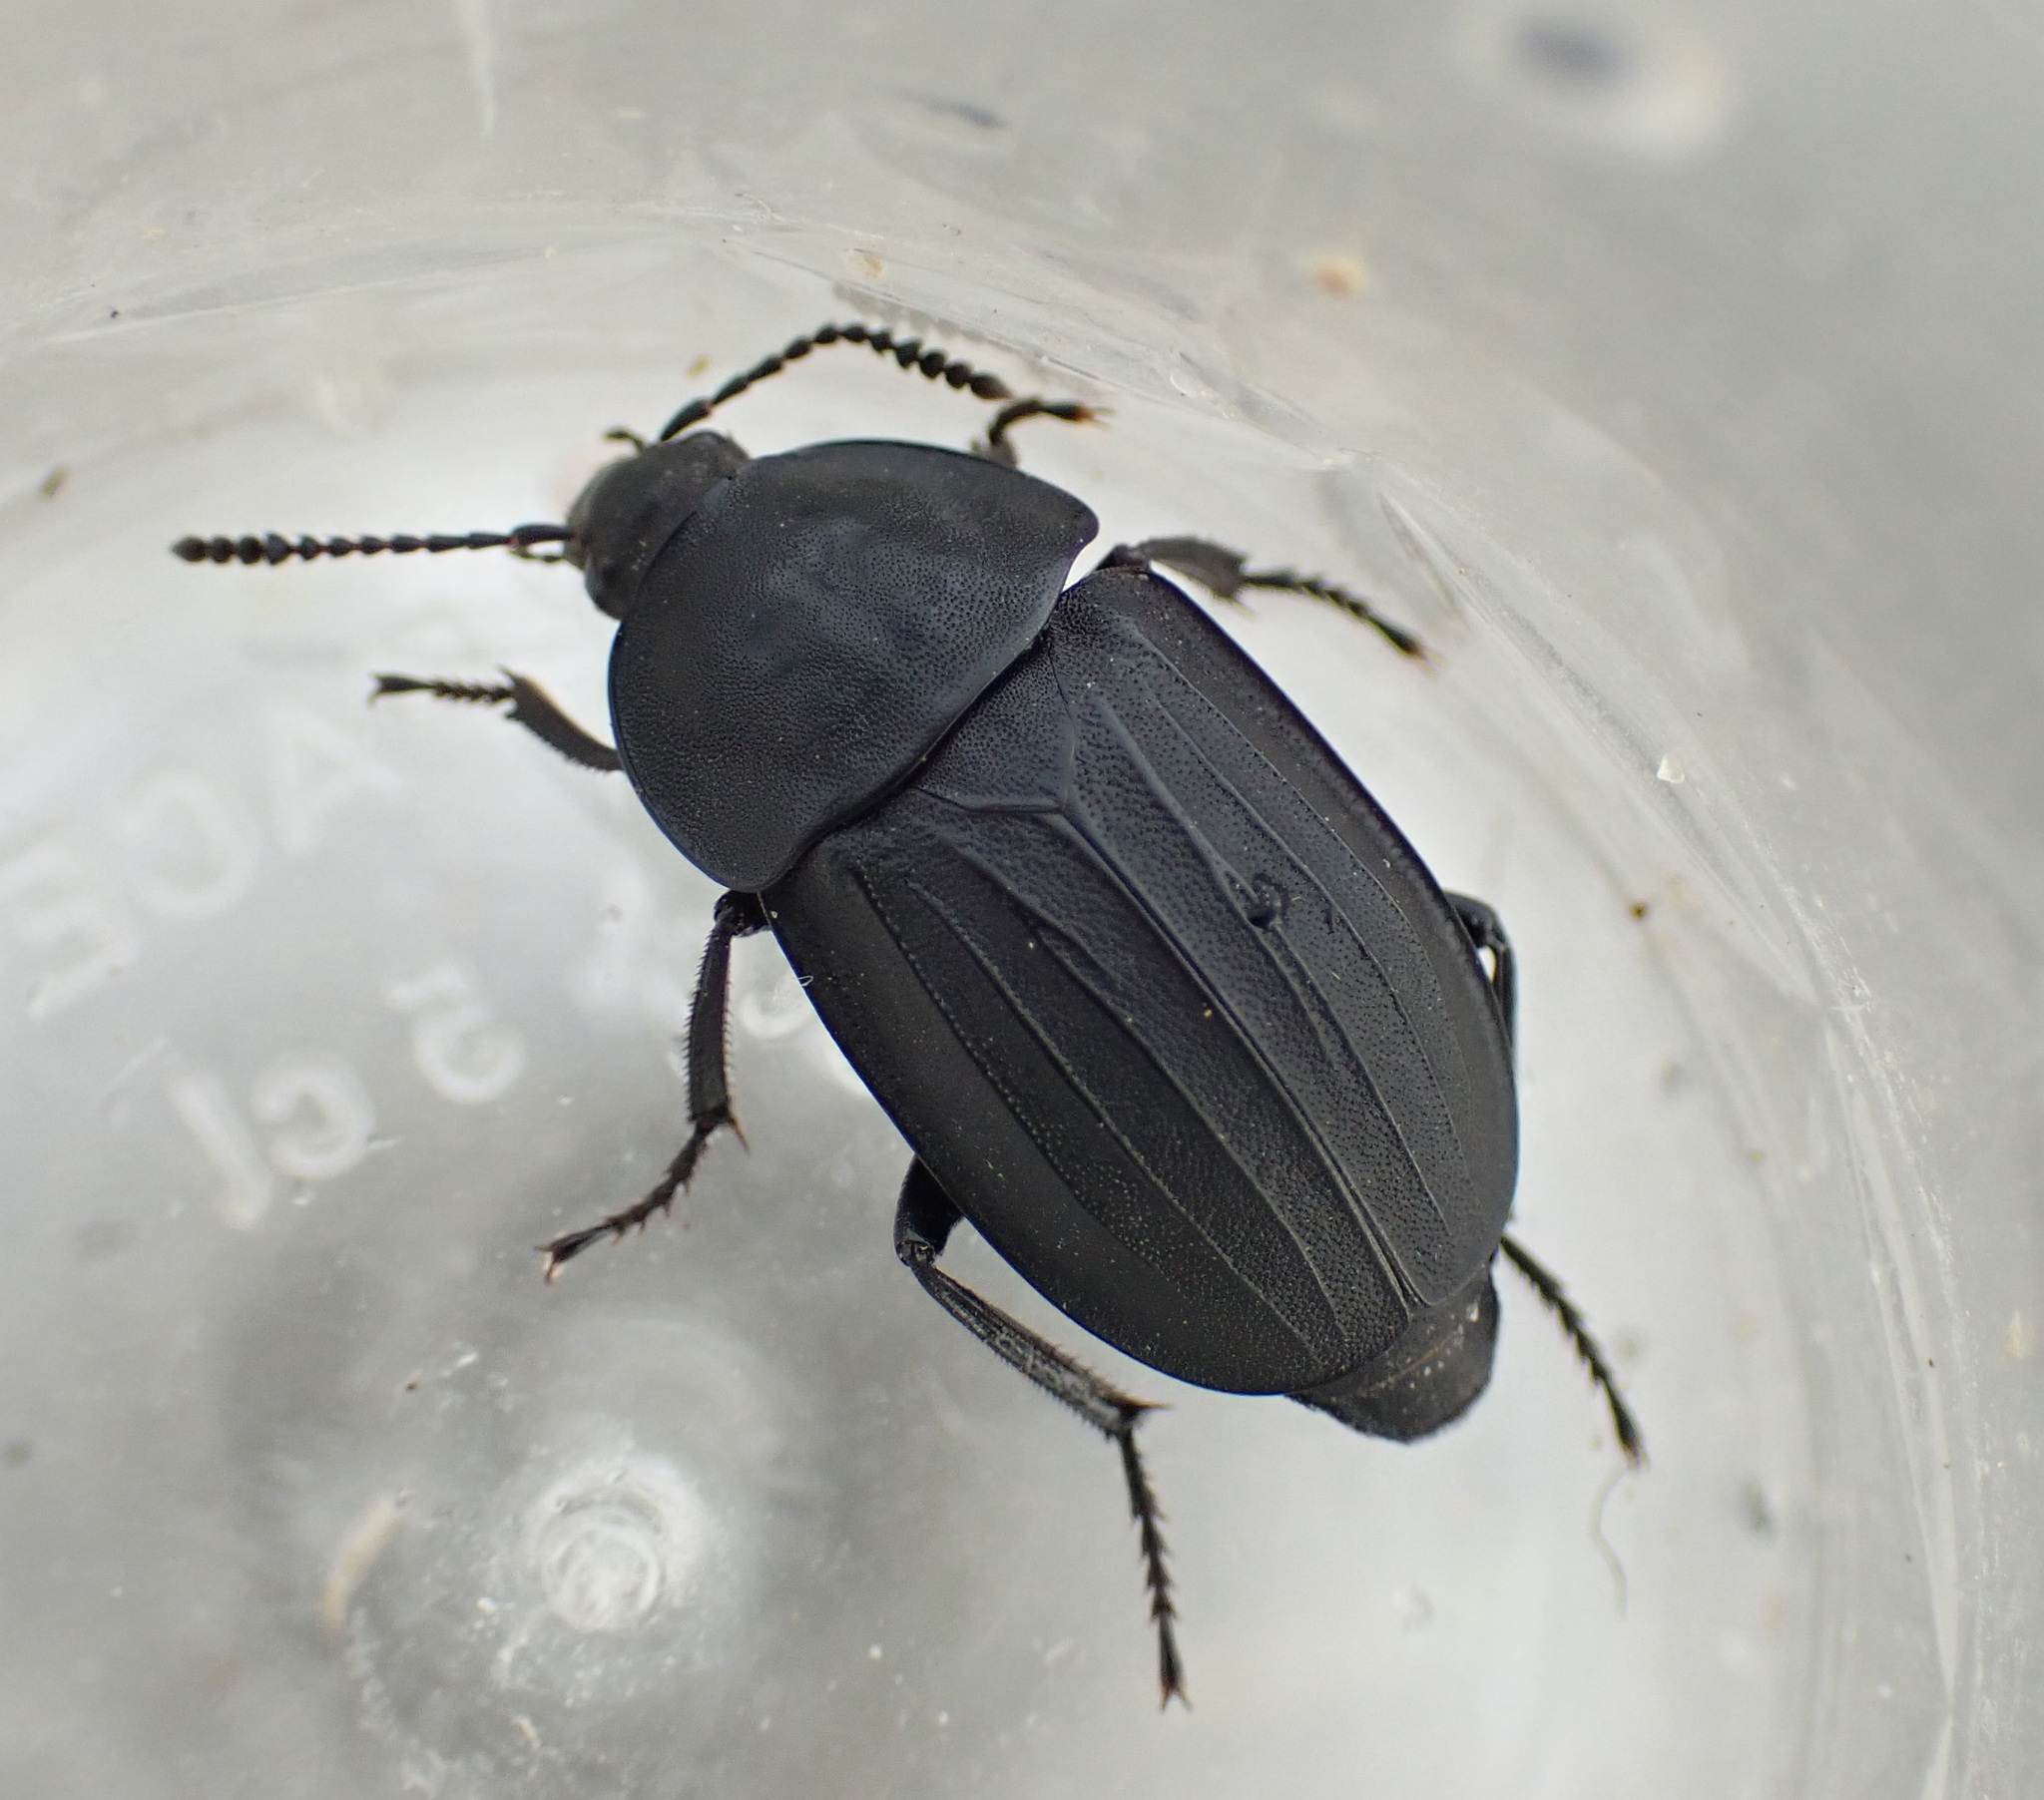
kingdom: Animalia
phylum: Arthropoda
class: Insecta
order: Coleoptera
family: Staphylinidae
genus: Silpha
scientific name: Silpha tristis
